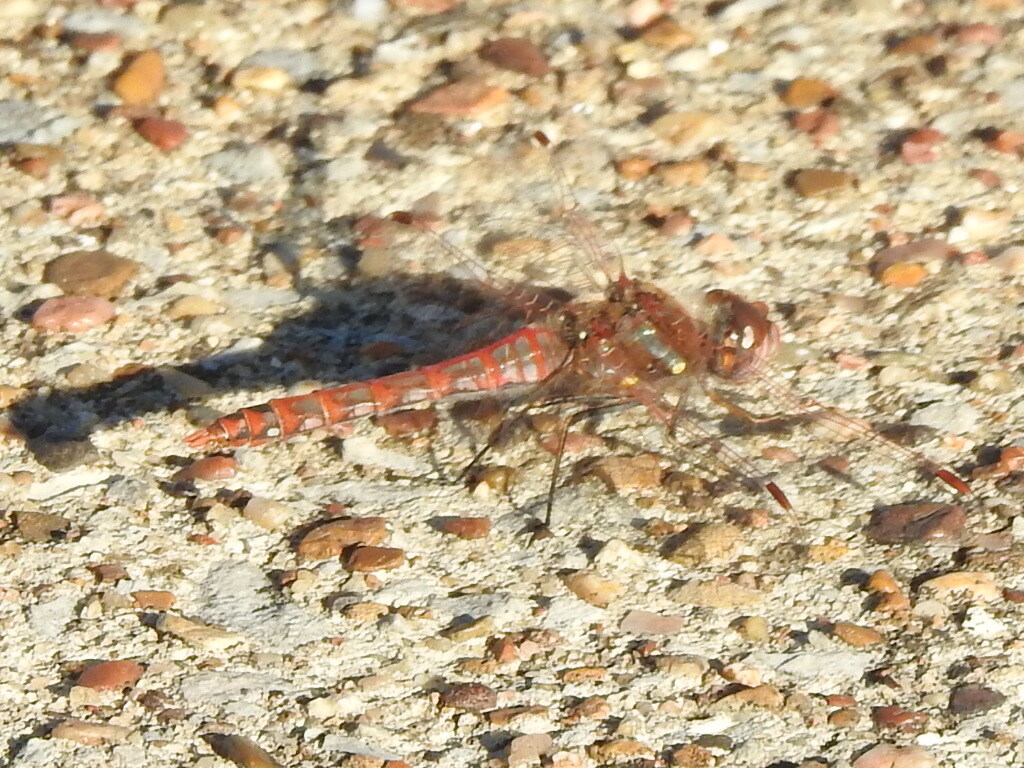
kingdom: Animalia
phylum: Arthropoda
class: Insecta
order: Odonata
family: Libellulidae
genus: Sympetrum
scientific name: Sympetrum corruptum
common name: Variegated meadowhawk
